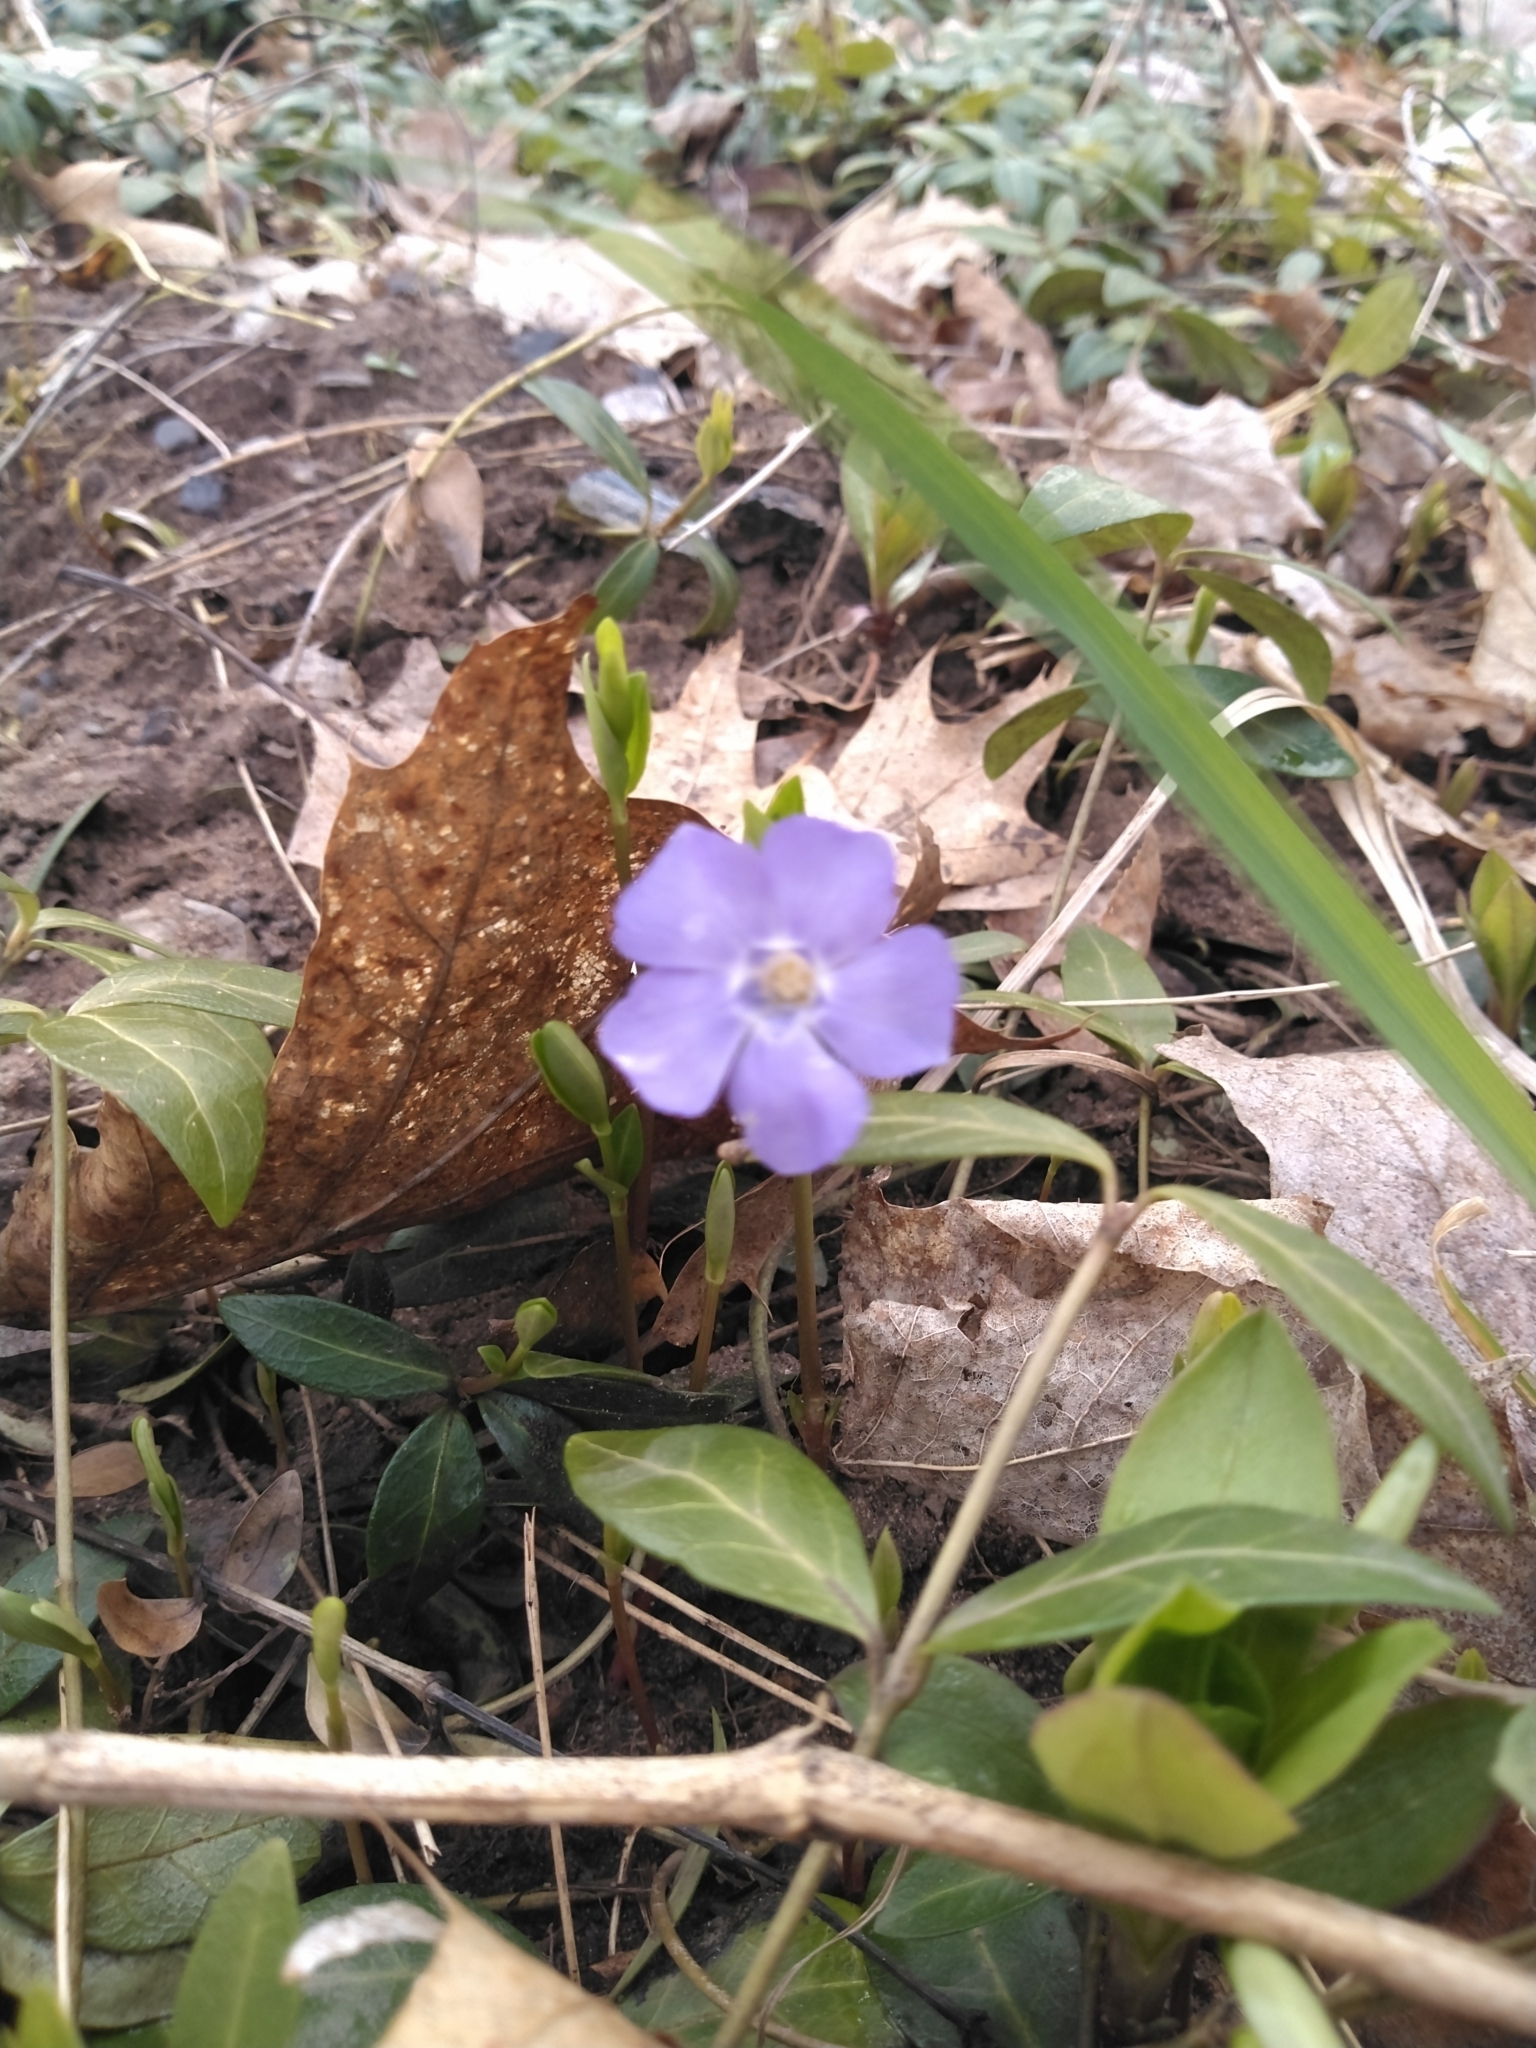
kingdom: Plantae
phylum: Tracheophyta
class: Magnoliopsida
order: Gentianales
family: Apocynaceae
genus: Vinca
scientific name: Vinca minor
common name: Lesser periwinkle
